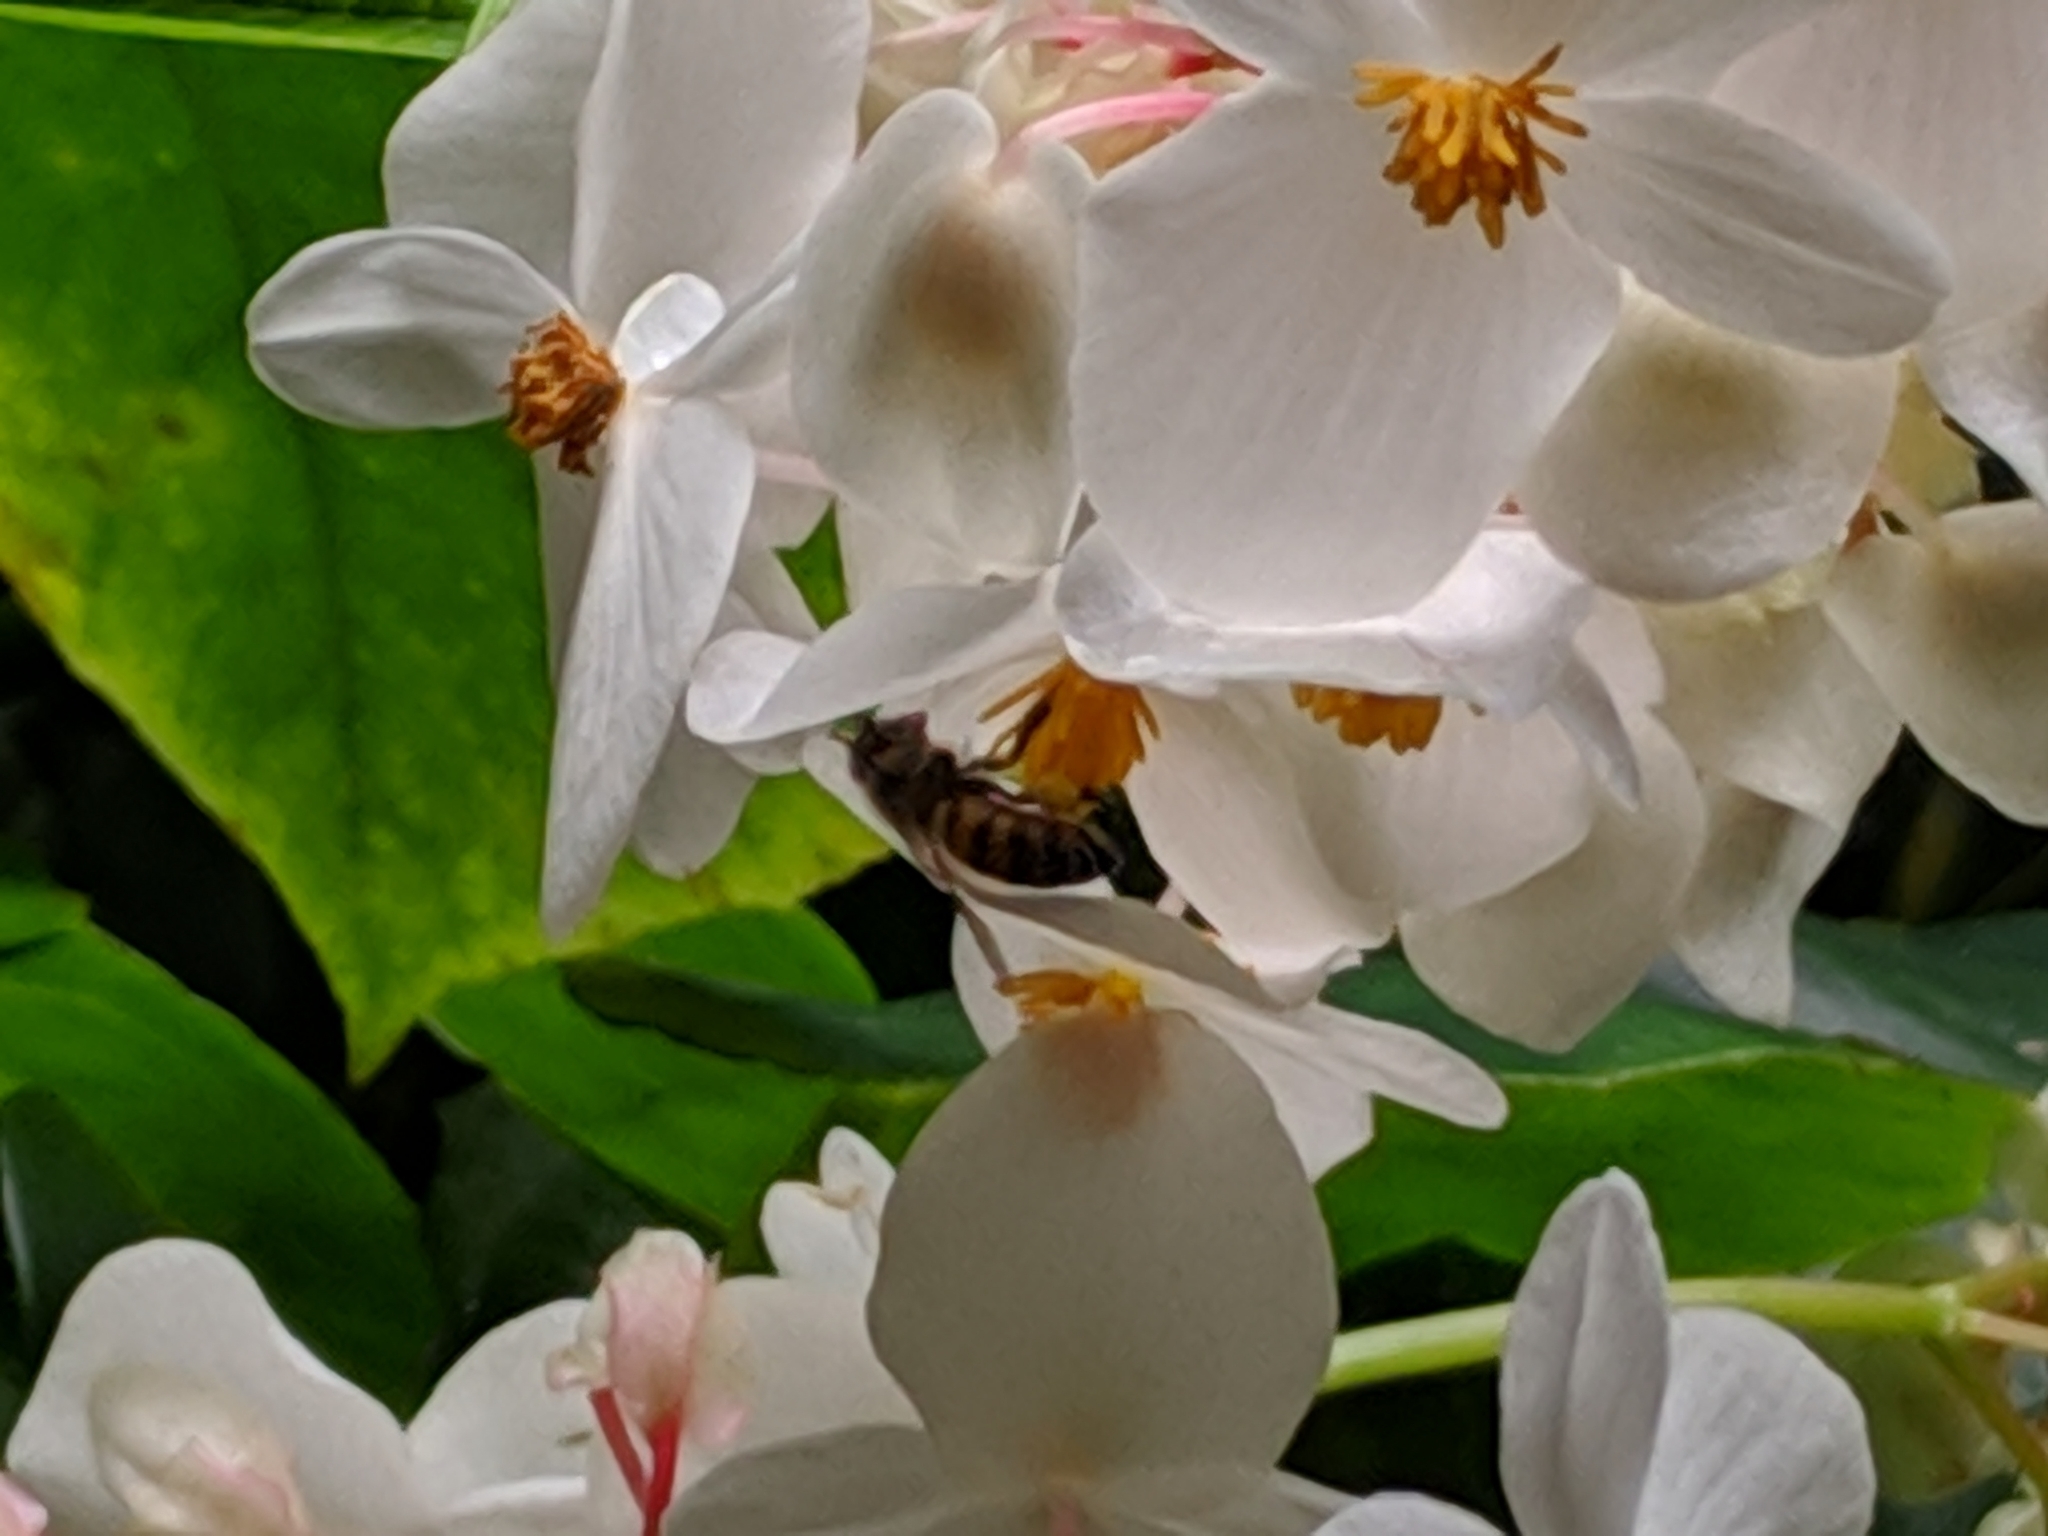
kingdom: Animalia
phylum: Arthropoda
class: Insecta
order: Hymenoptera
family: Apidae
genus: Apis
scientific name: Apis mellifera
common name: Honey bee
